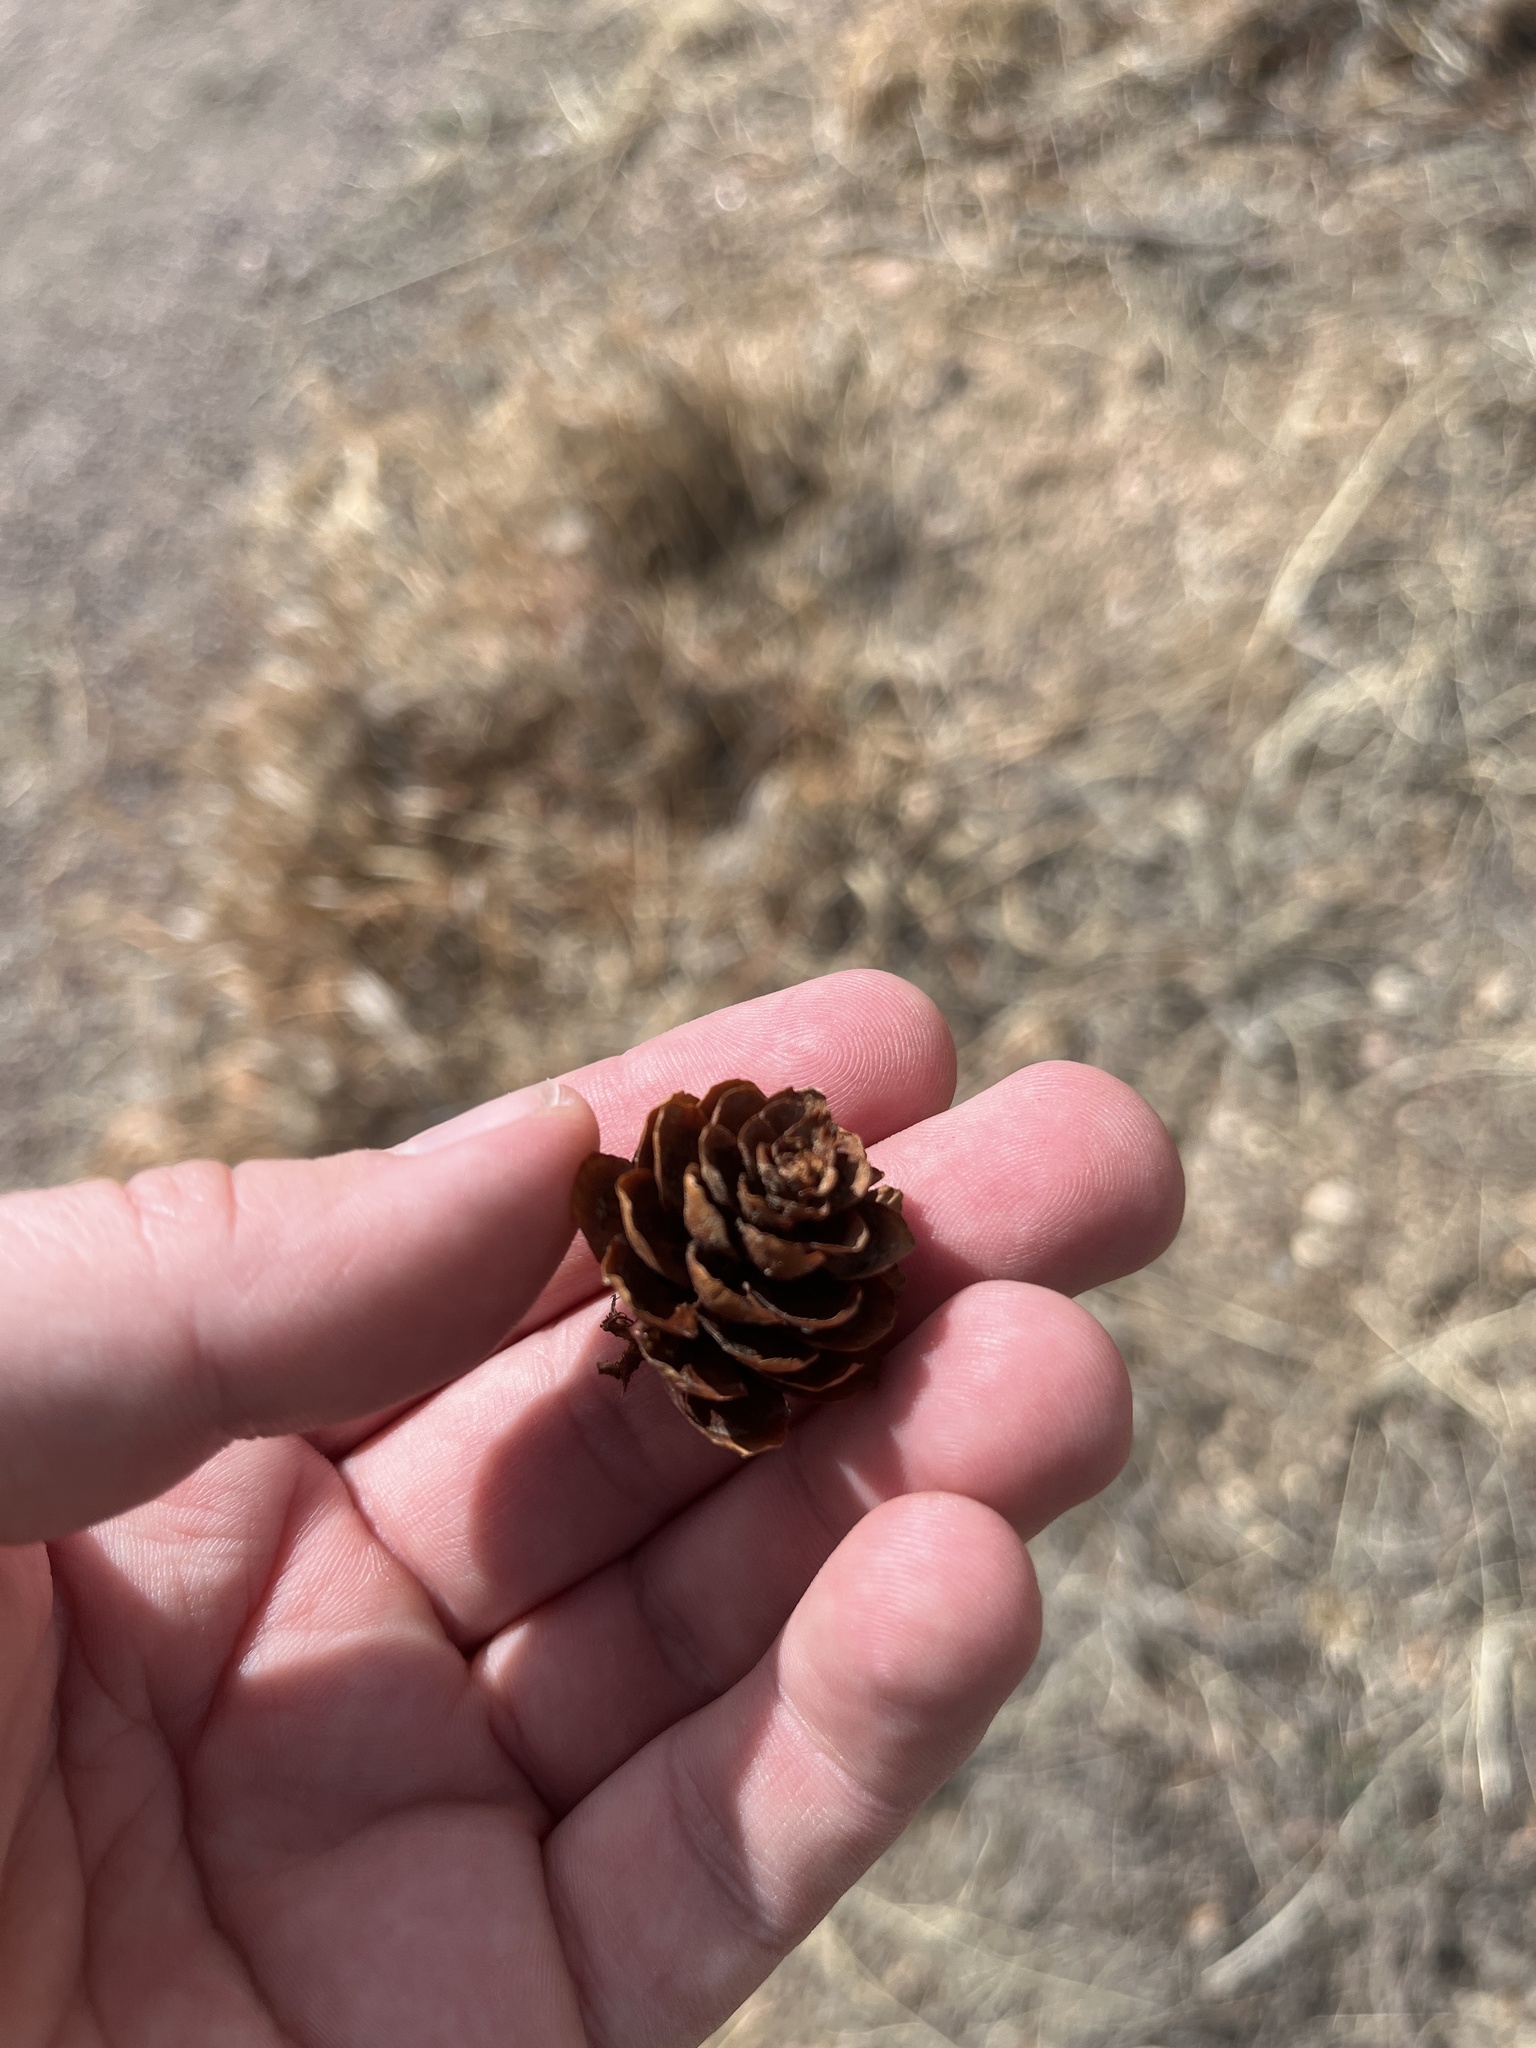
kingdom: Plantae
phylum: Tracheophyta
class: Pinopsida
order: Pinales
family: Pinaceae
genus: Picea
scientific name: Picea pungens
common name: Colorado spruce
